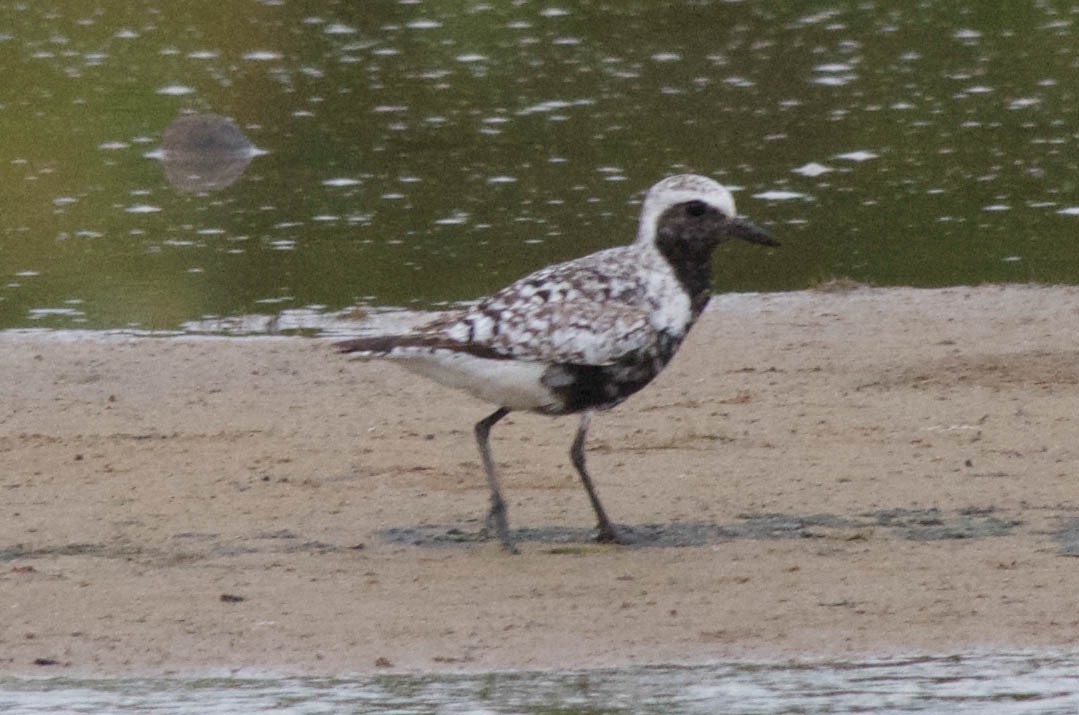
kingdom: Animalia
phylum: Chordata
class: Aves
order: Charadriiformes
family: Charadriidae
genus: Pluvialis
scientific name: Pluvialis squatarola
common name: Grey plover
